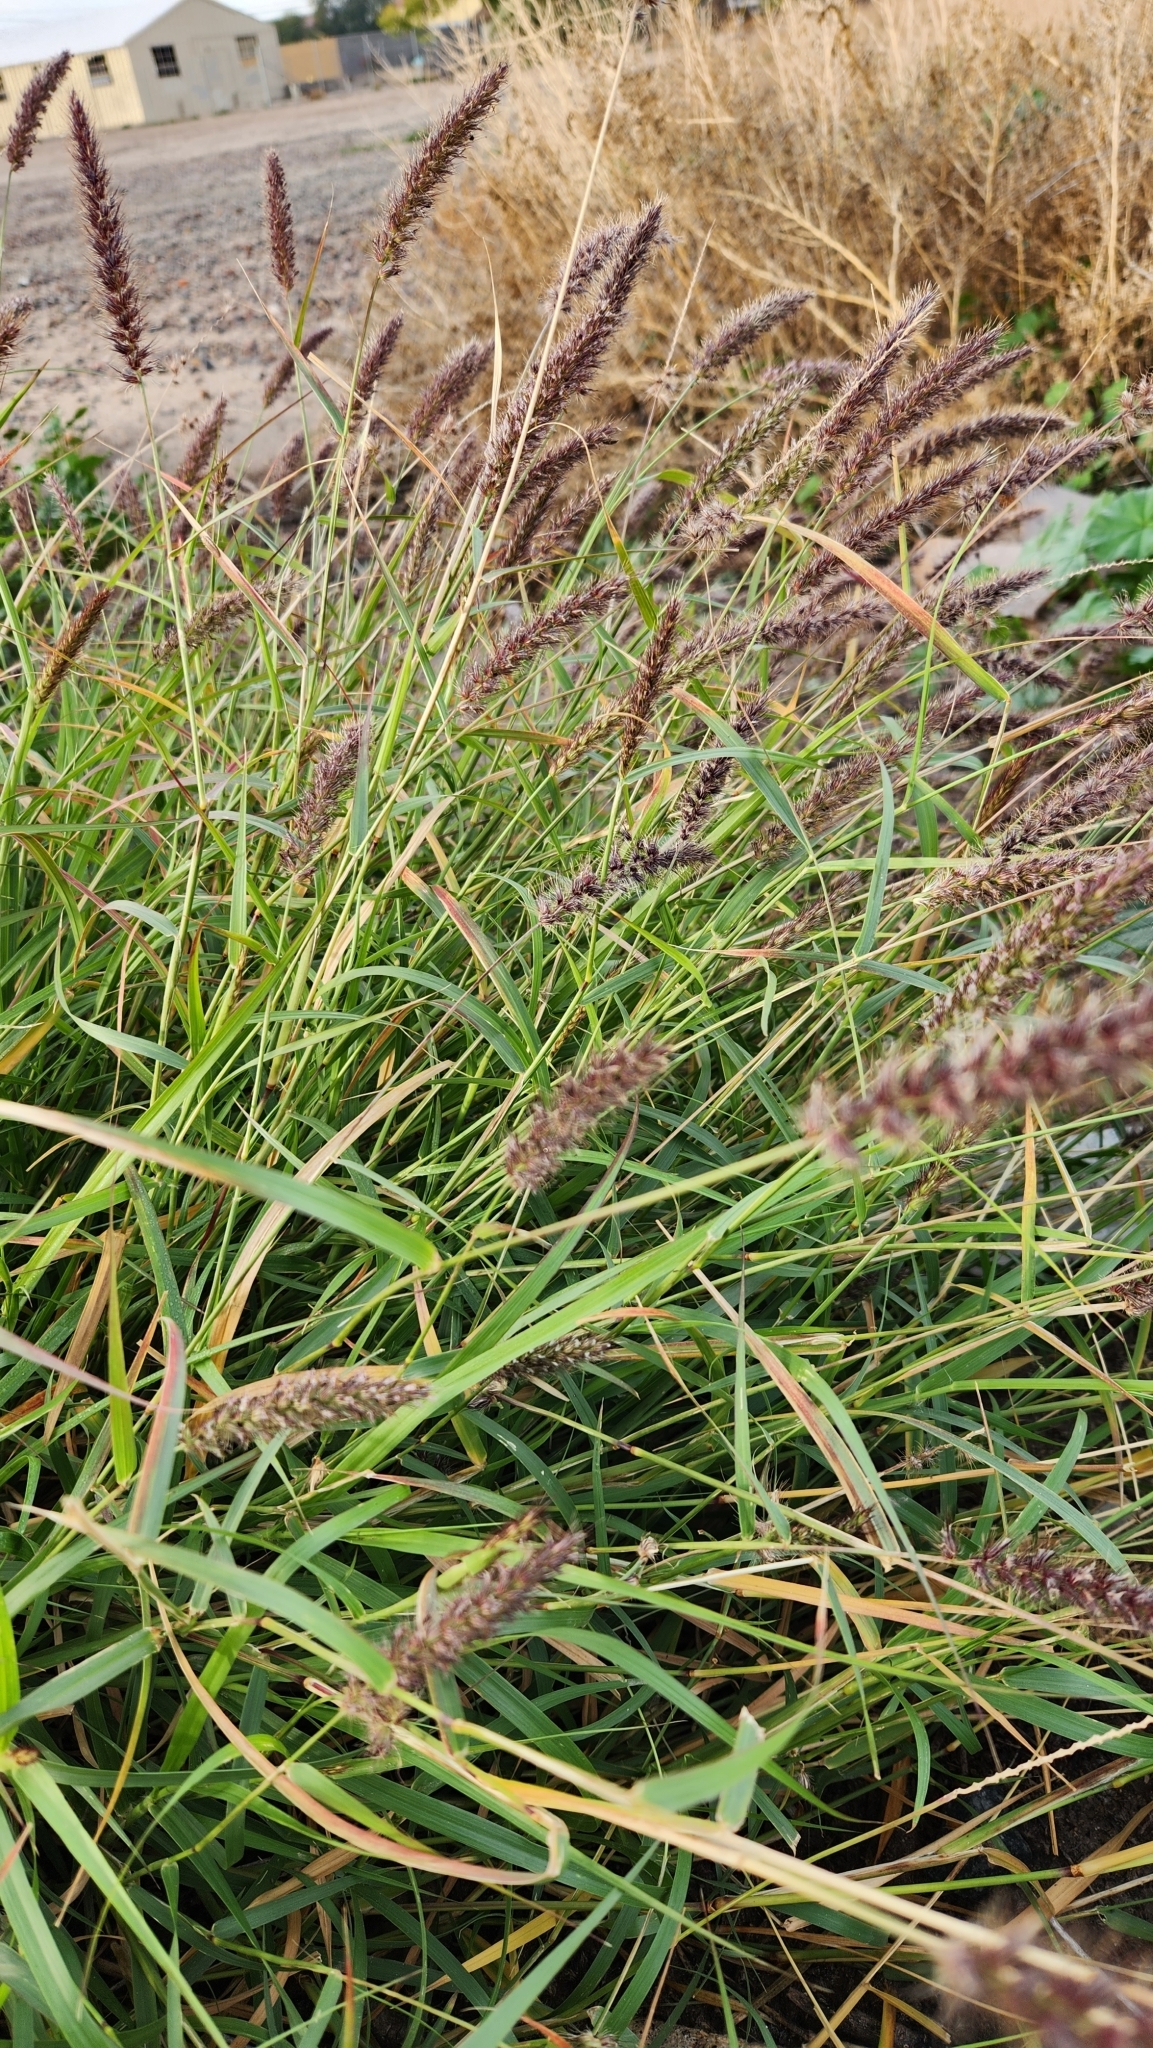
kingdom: Plantae
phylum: Tracheophyta
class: Liliopsida
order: Poales
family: Poaceae
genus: Cenchrus
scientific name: Cenchrus ciliaris
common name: Buffelgrass
